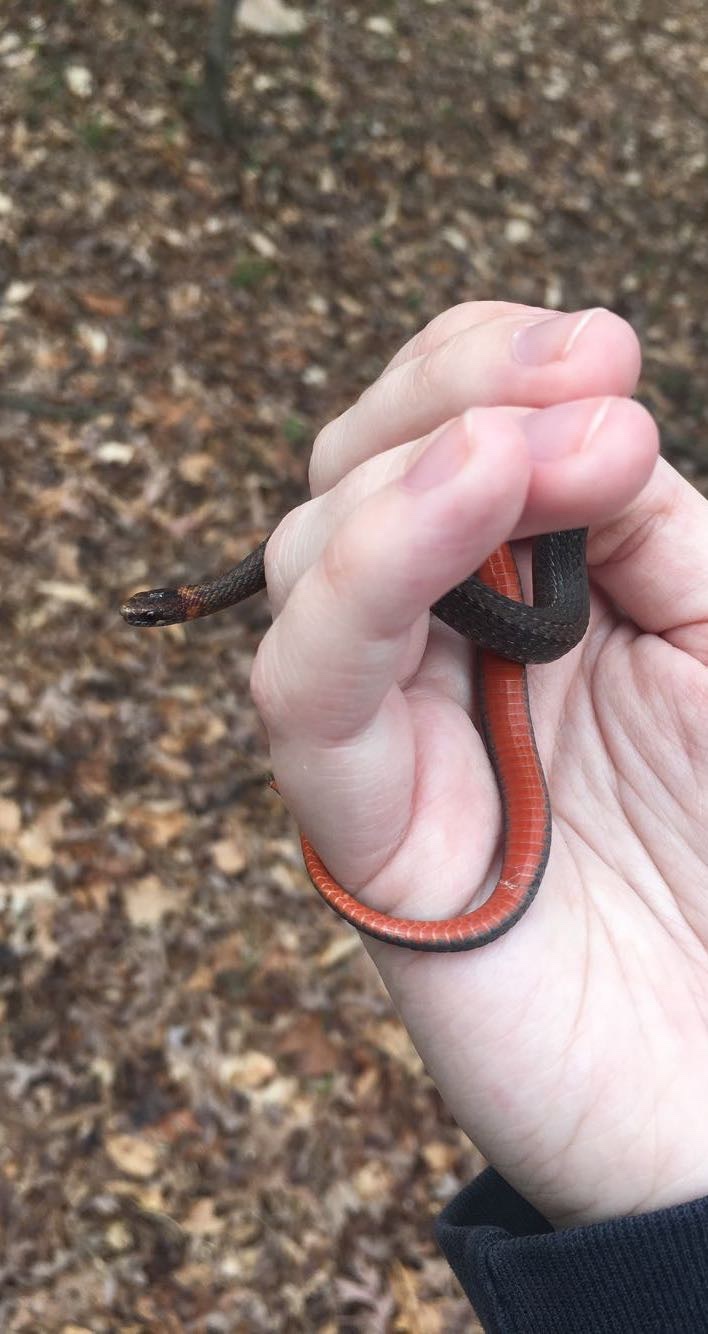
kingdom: Animalia
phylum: Chordata
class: Squamata
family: Colubridae
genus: Storeria
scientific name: Storeria occipitomaculata
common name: Redbelly snake
